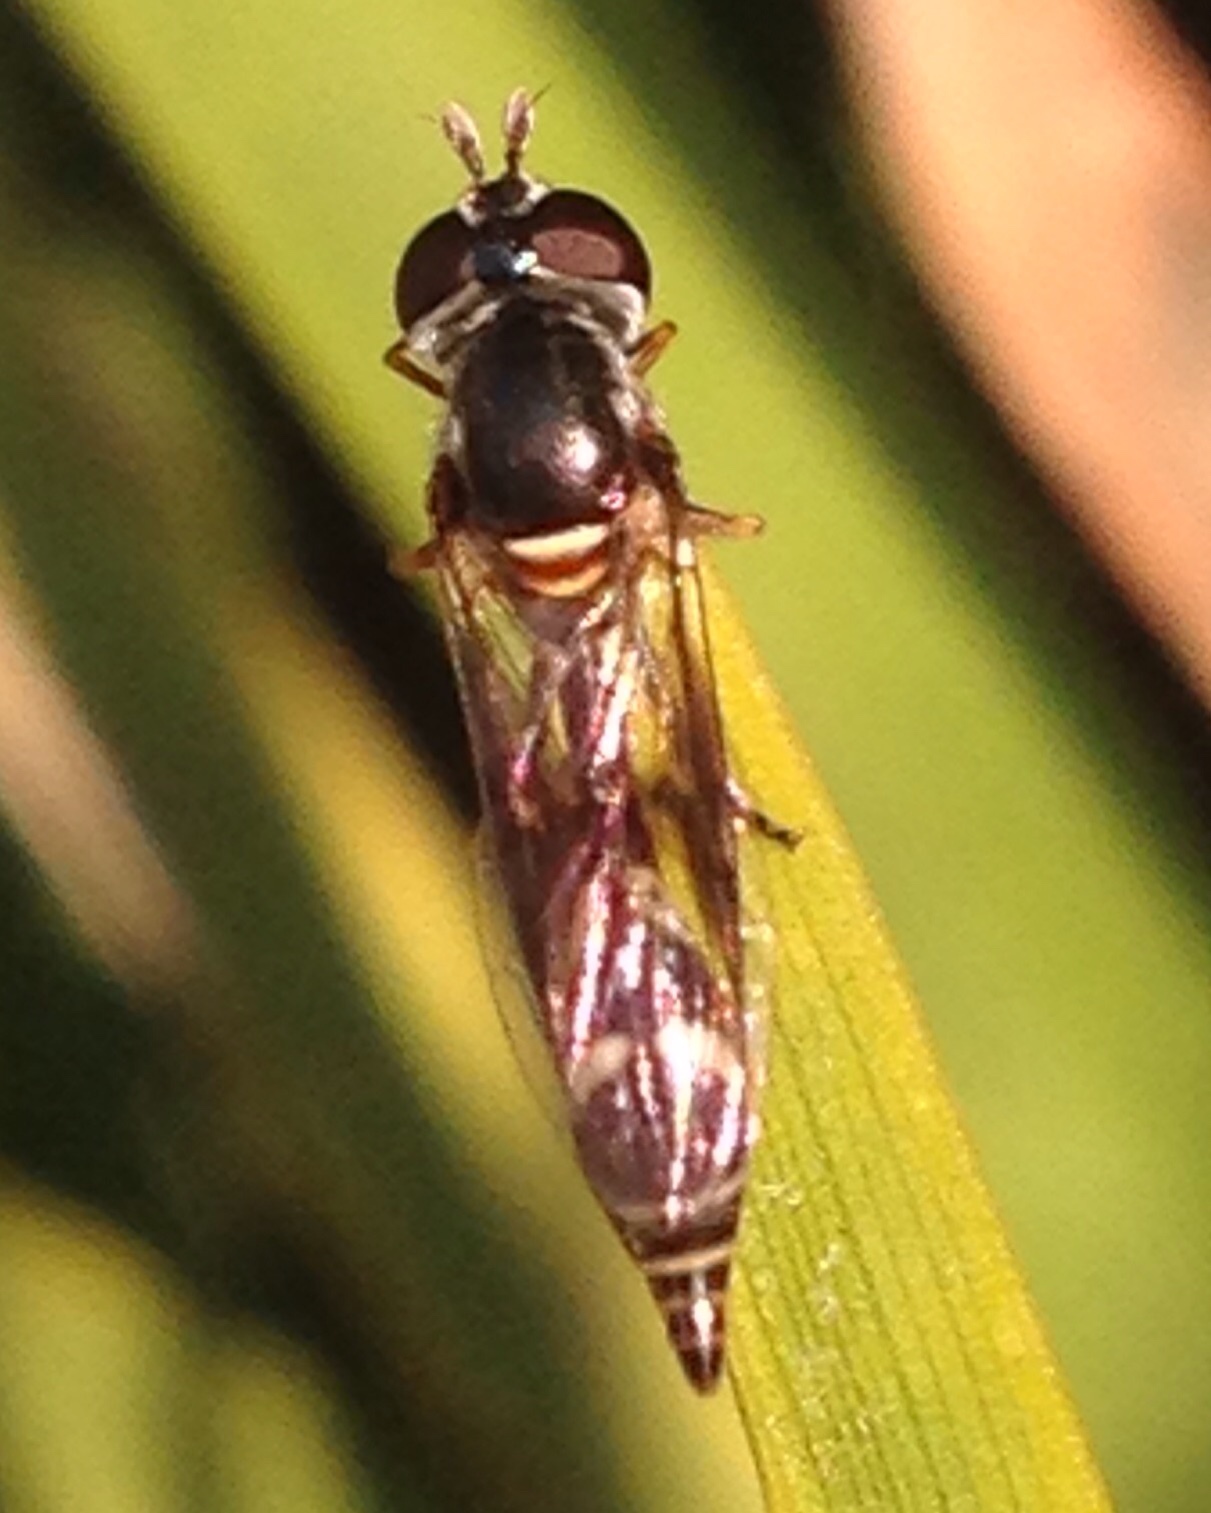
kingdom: Animalia
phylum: Arthropoda
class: Insecta
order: Diptera
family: Syrphidae
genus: Dioprosopa
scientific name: Dioprosopa clavatus
